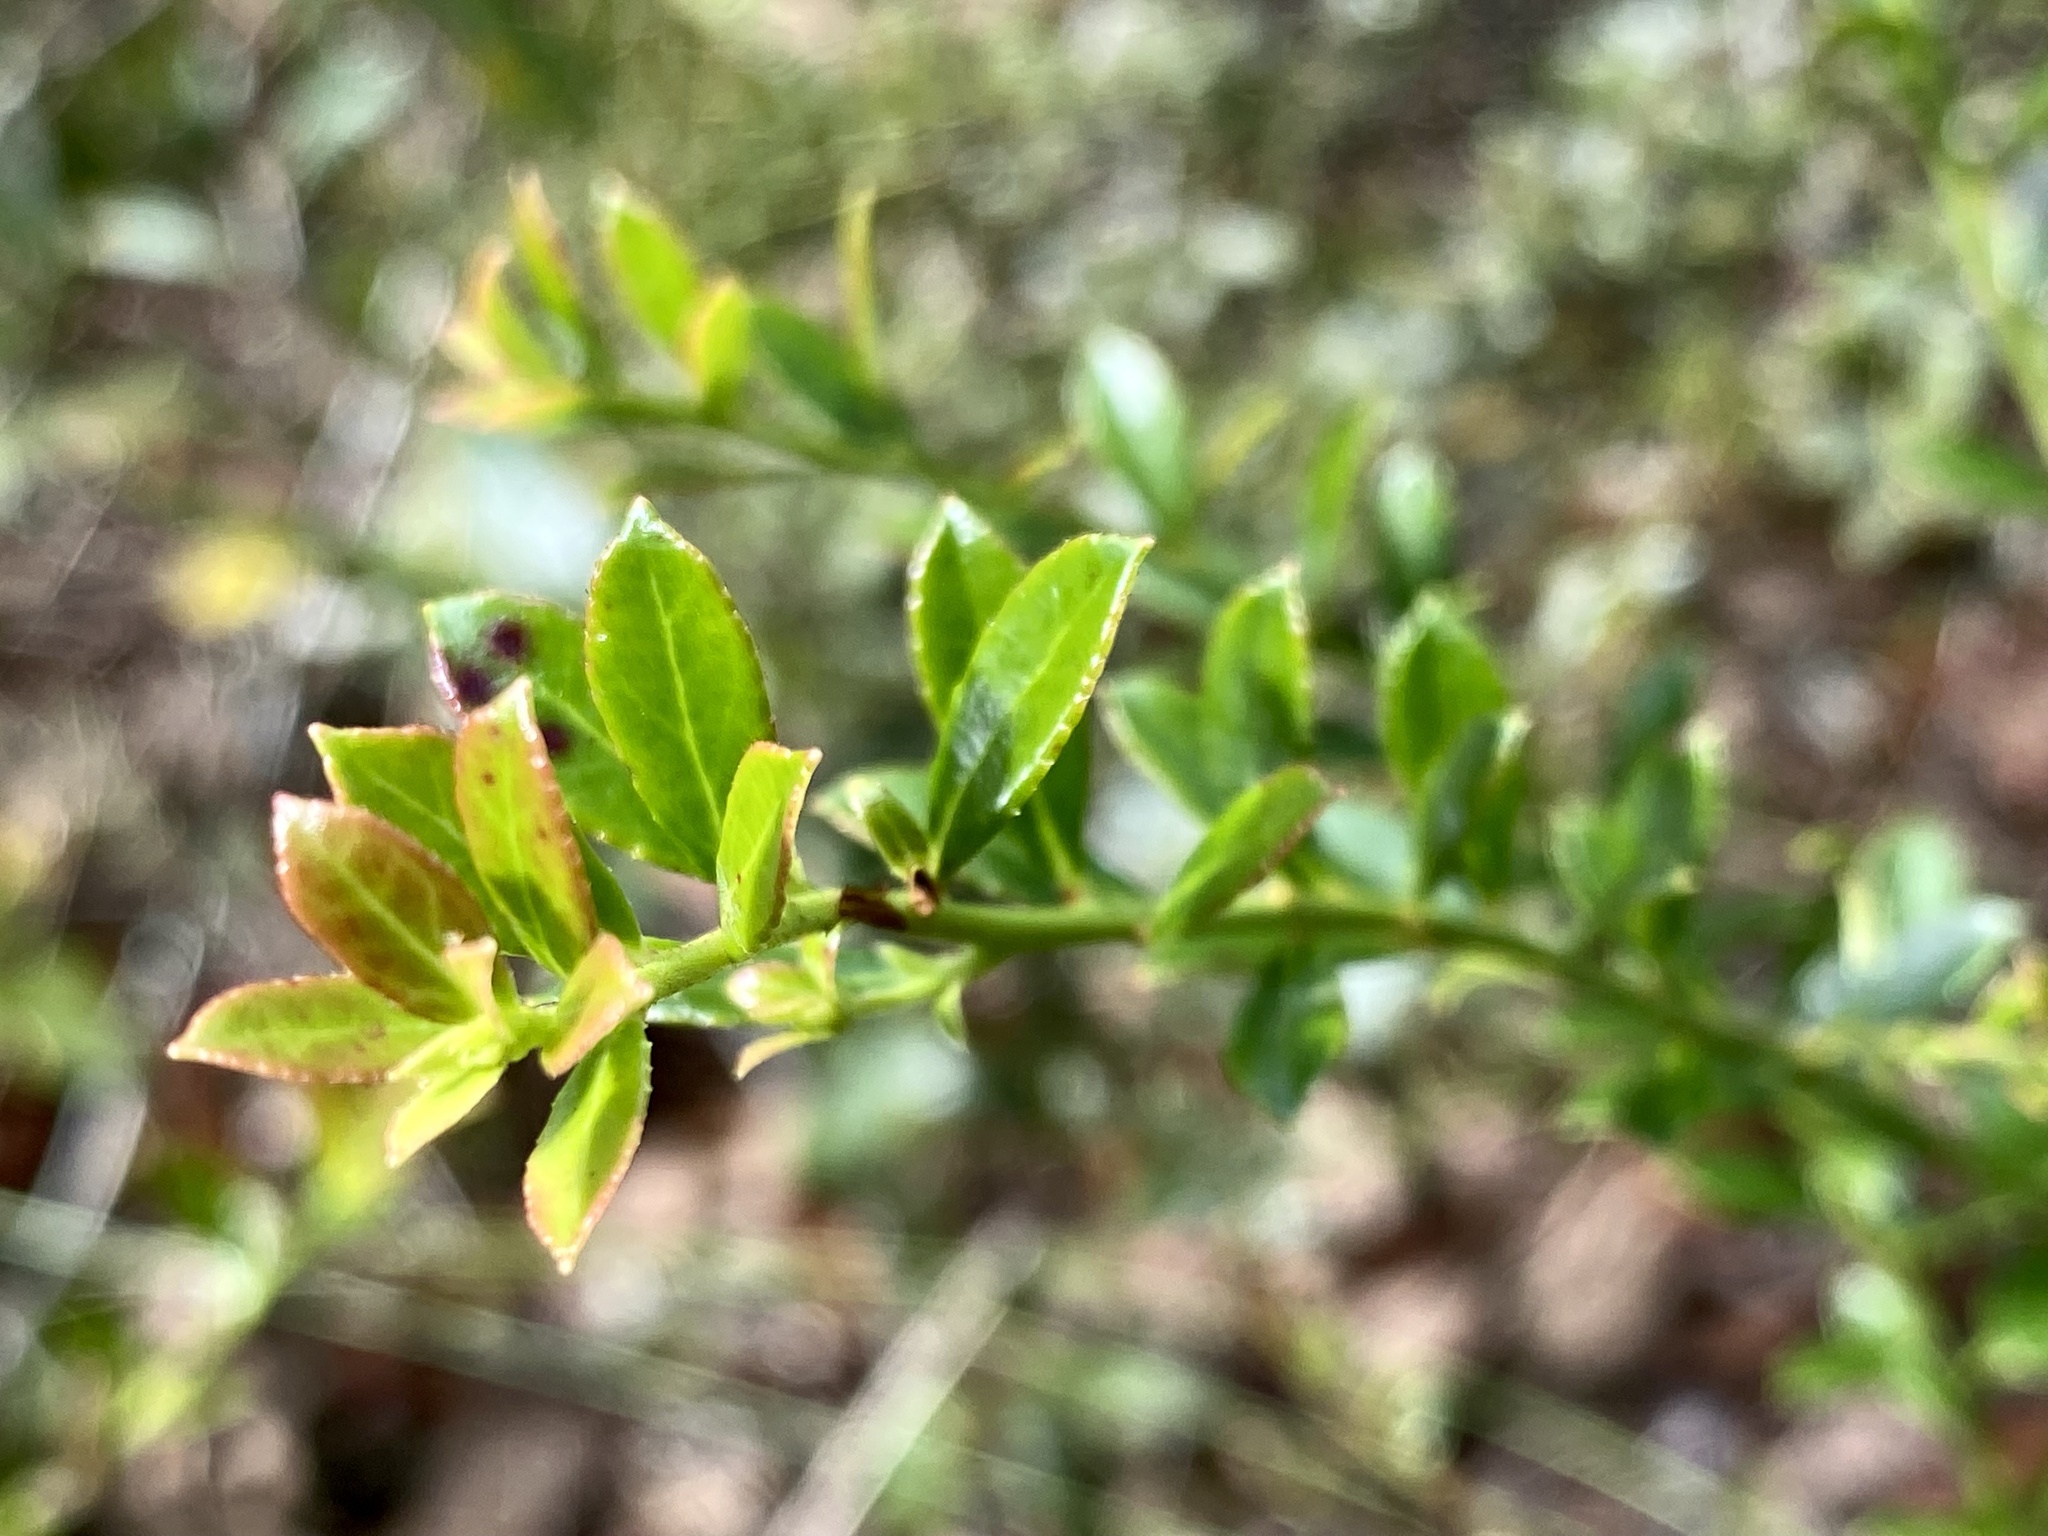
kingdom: Plantae
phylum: Tracheophyta
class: Magnoliopsida
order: Ericales
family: Ericaceae
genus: Vaccinium
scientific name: Vaccinium myrsinites
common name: Evergreen blueberry
